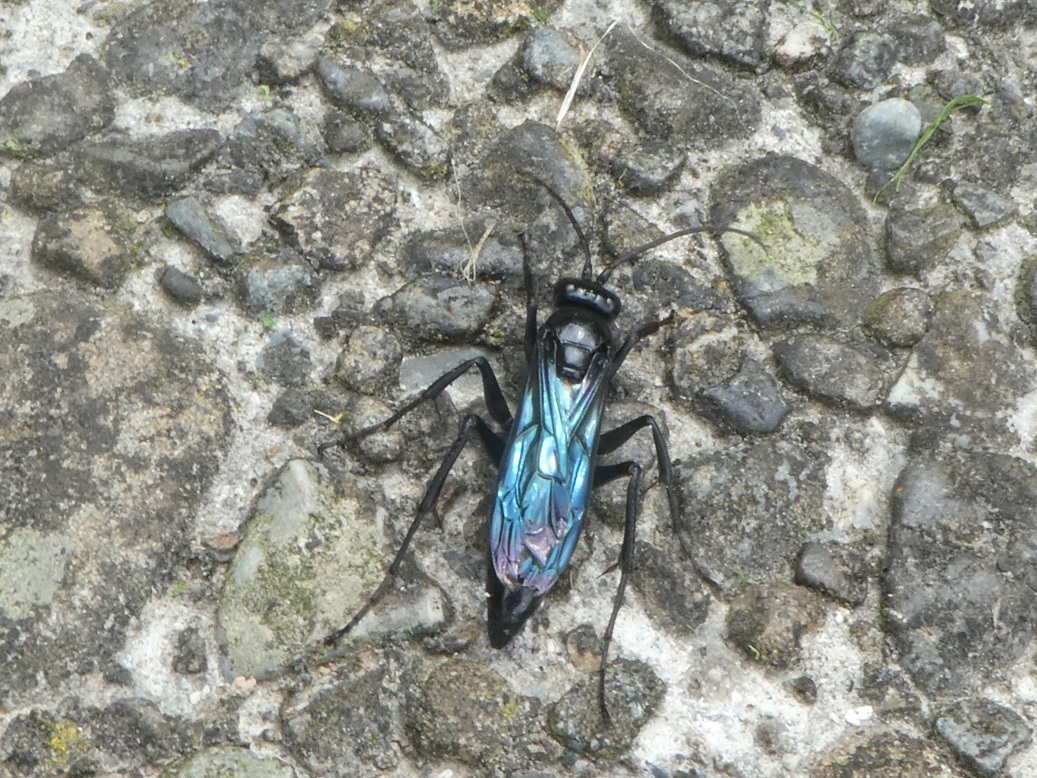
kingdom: Animalia
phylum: Arthropoda
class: Insecta
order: Hymenoptera
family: Pompilidae
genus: Priocnemis
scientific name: Priocnemis monachus
